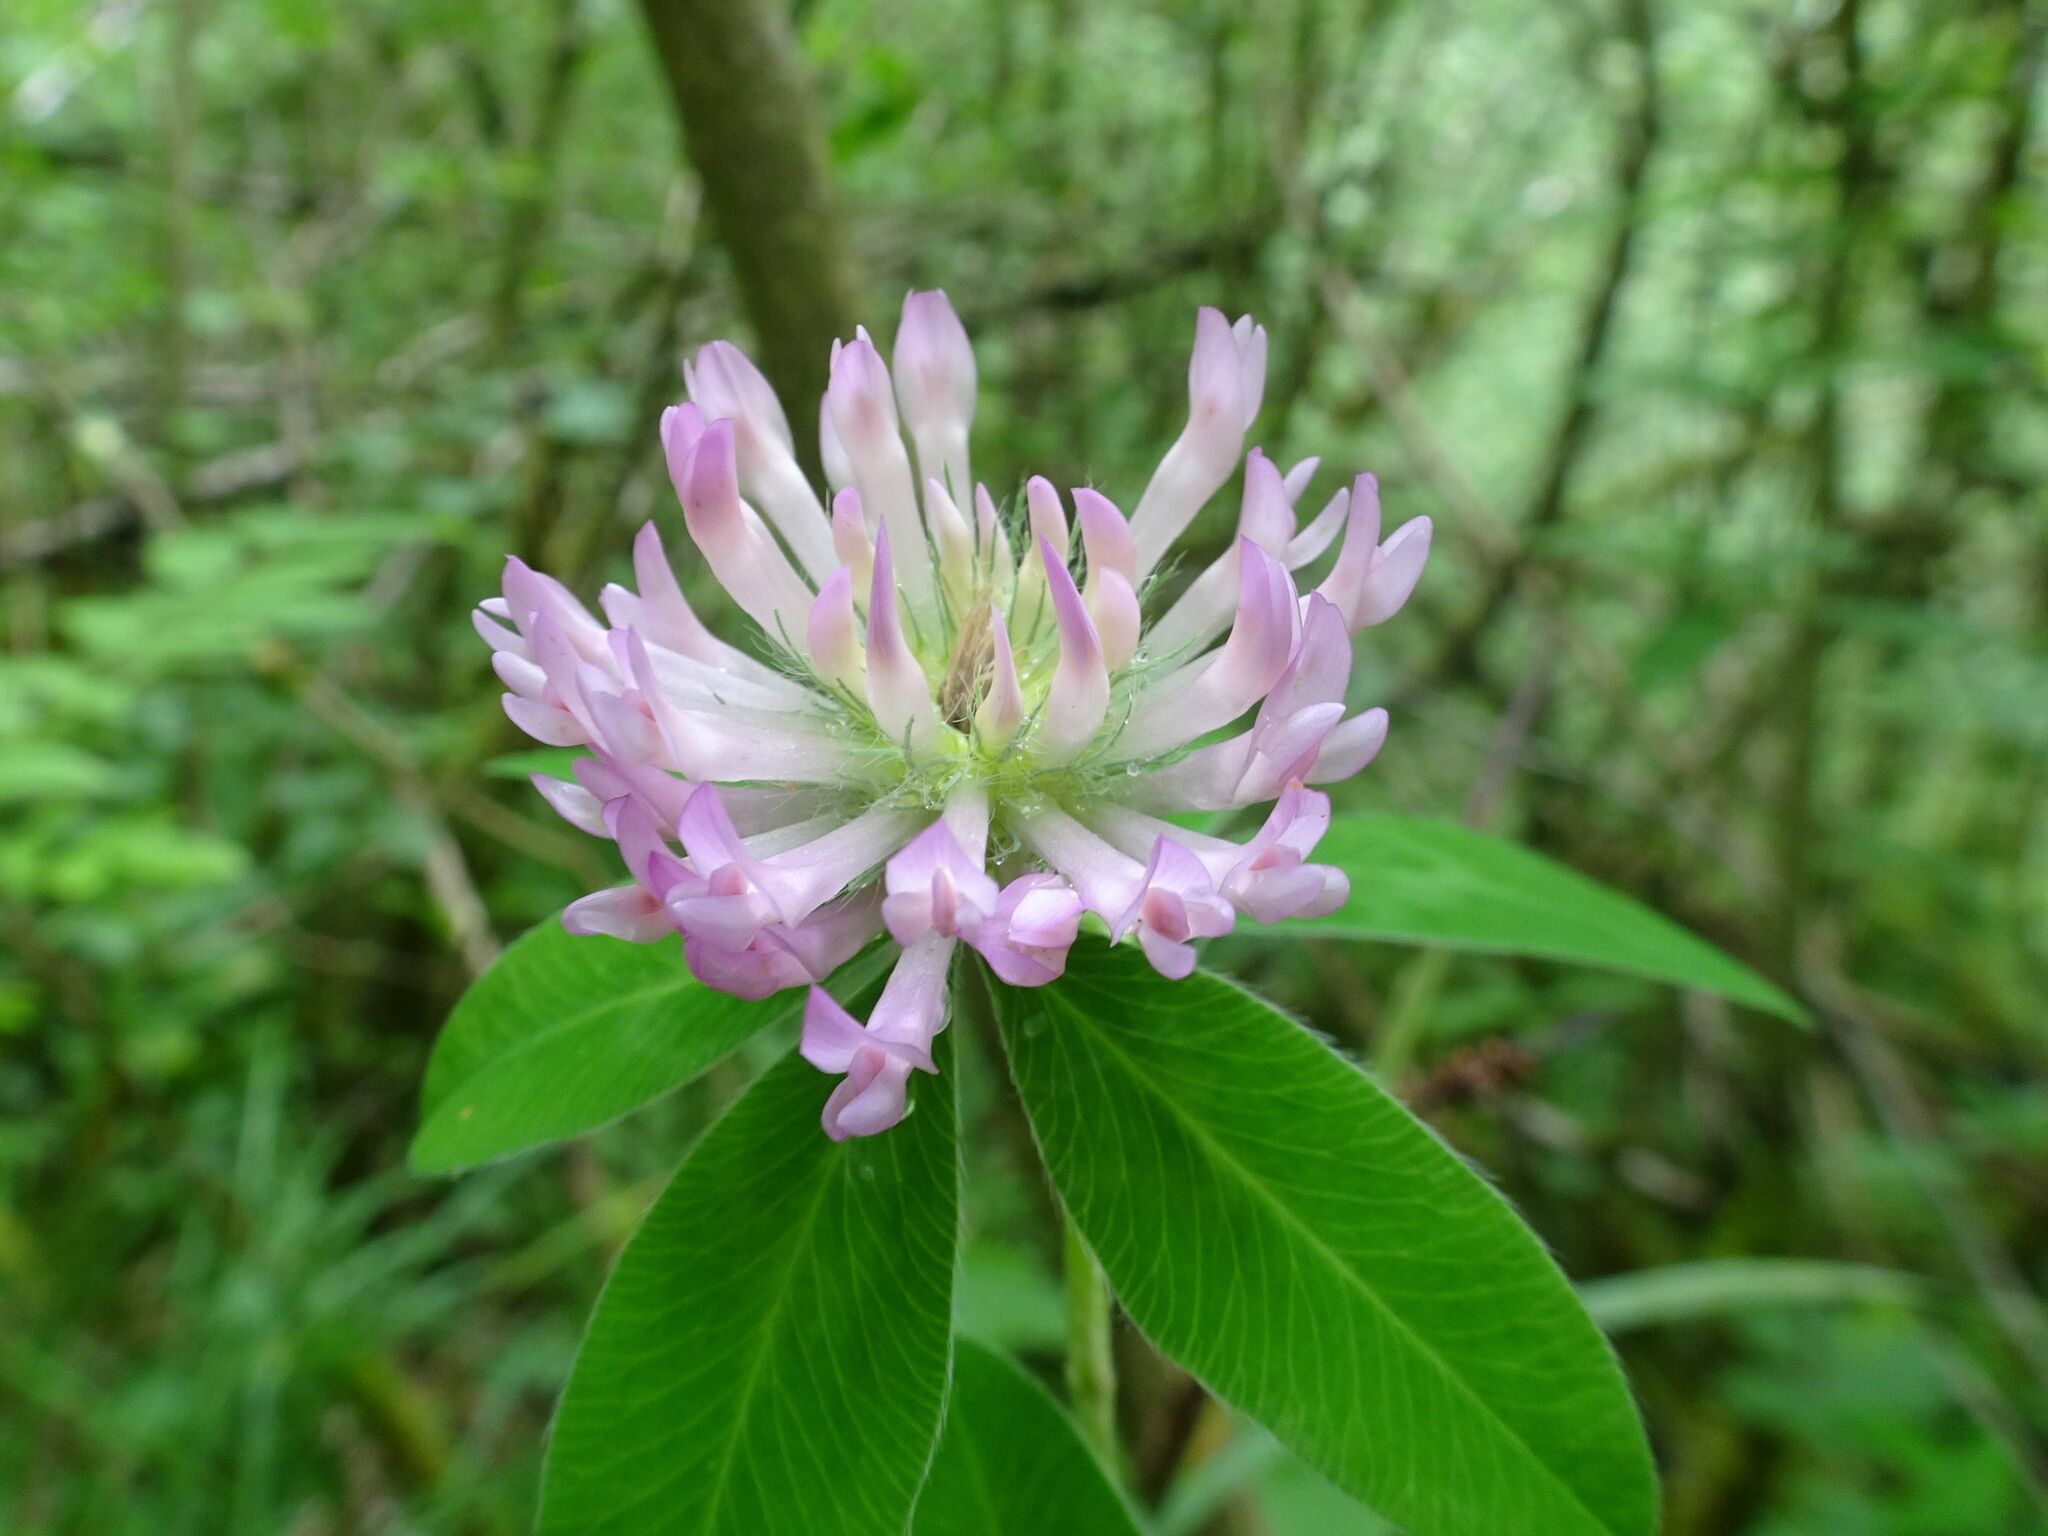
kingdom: Plantae
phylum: Tracheophyta
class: Magnoliopsida
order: Fabales
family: Fabaceae
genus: Trifolium
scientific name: Trifolium medium
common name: Zigzag clover
